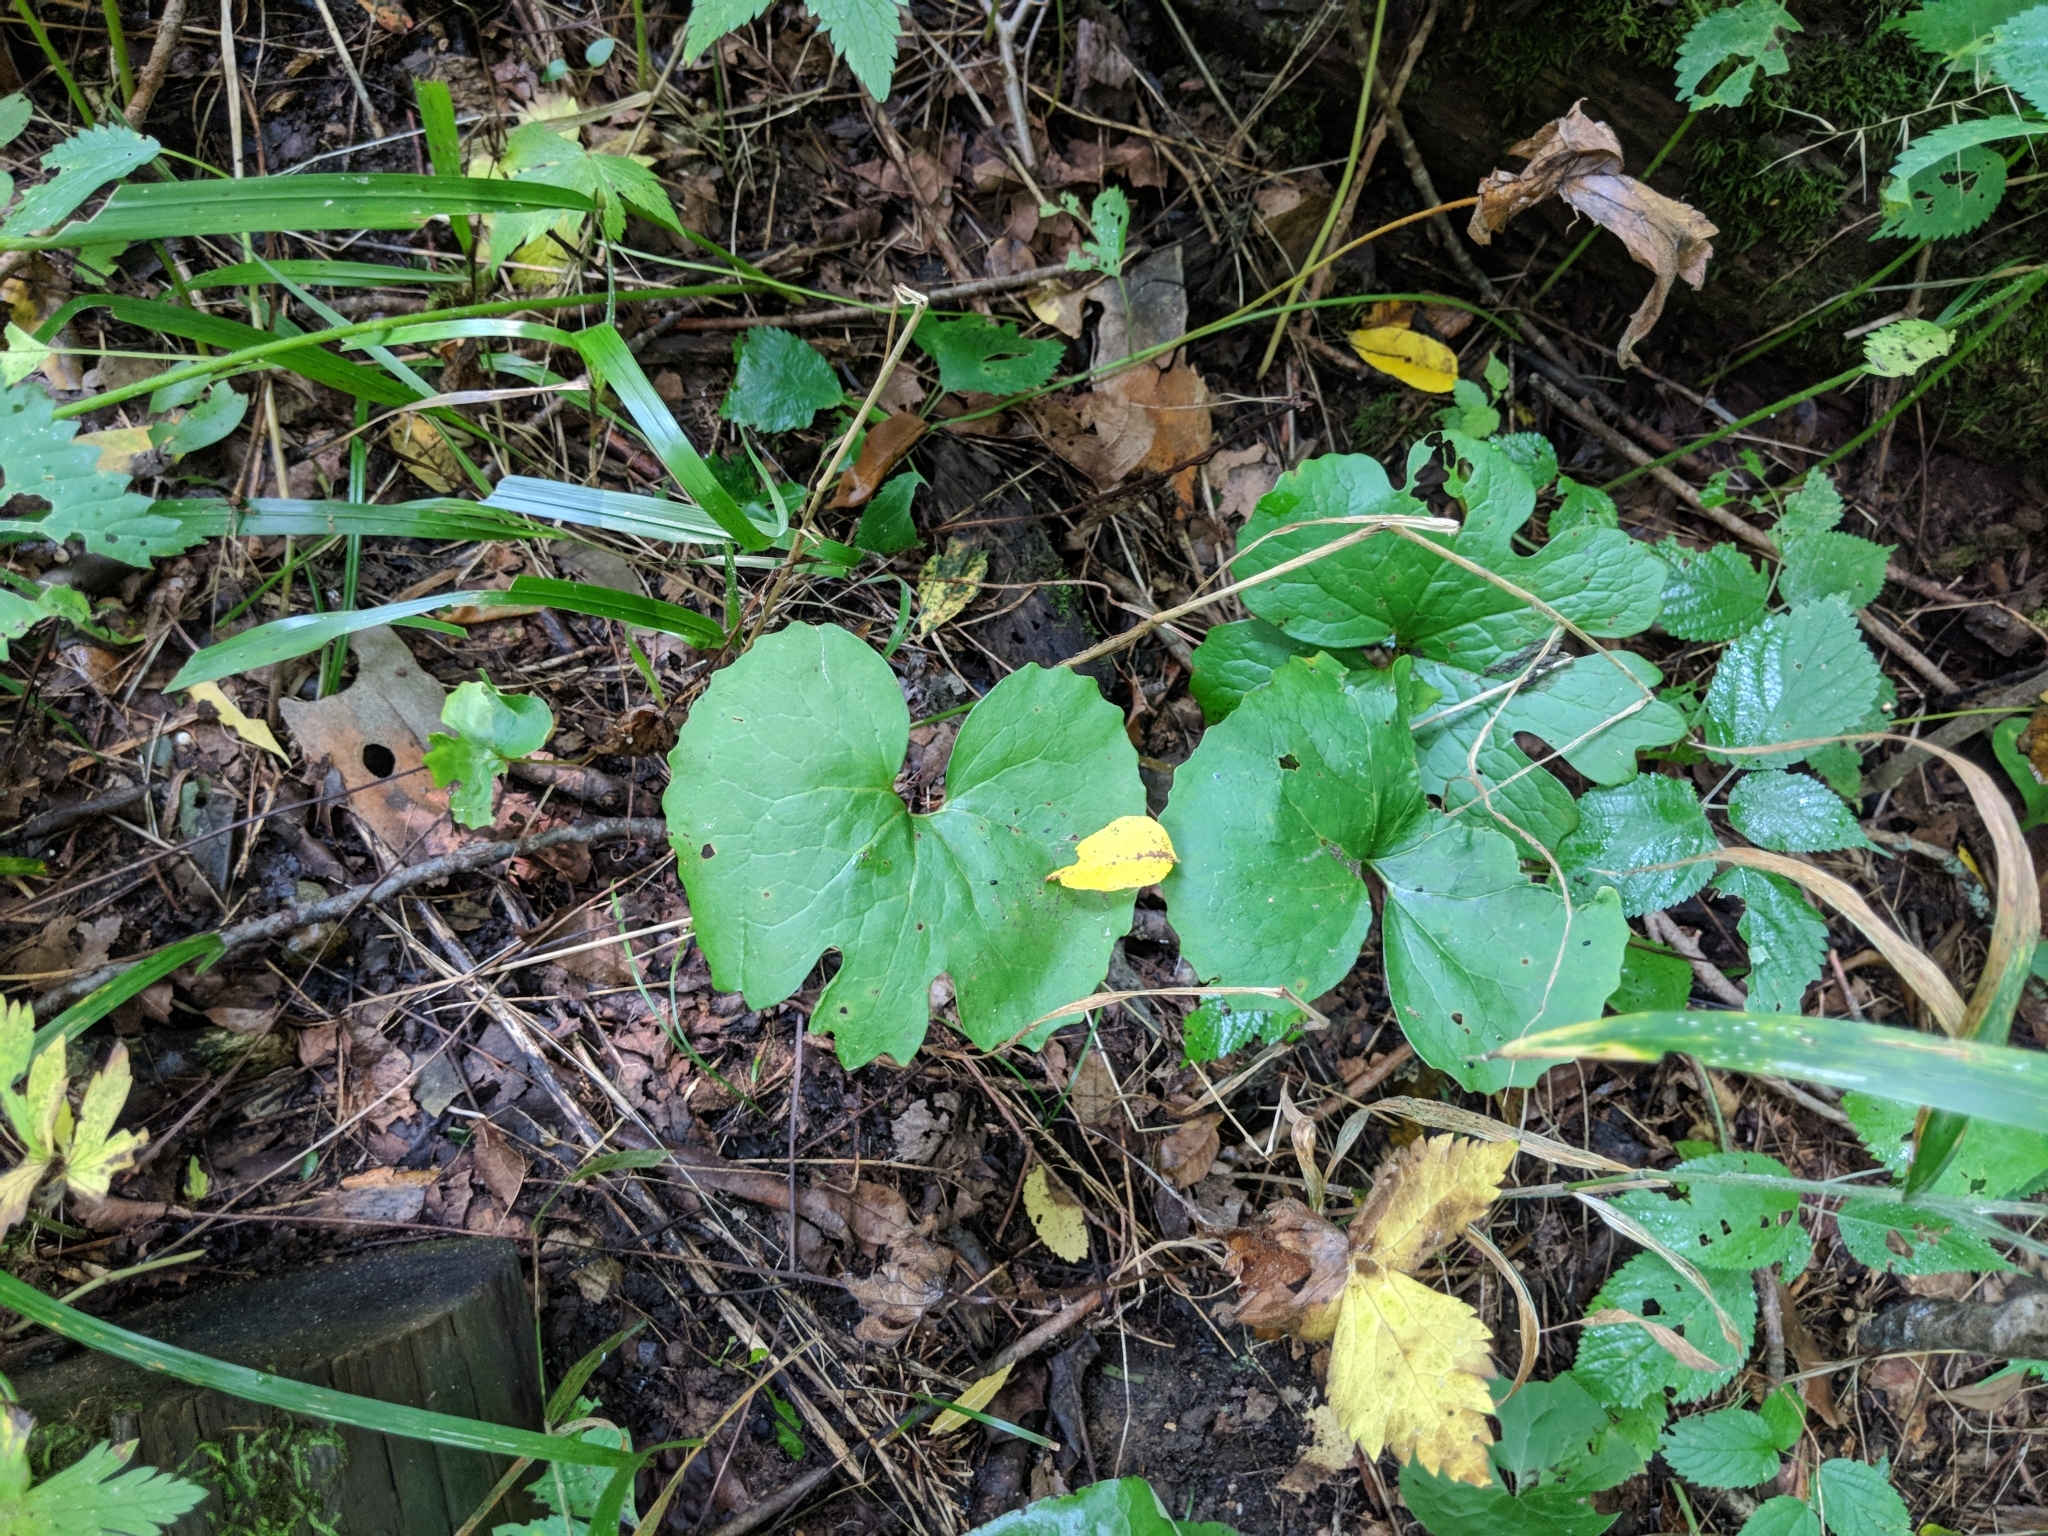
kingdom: Plantae
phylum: Tracheophyta
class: Magnoliopsida
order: Ranunculales
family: Papaveraceae
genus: Sanguinaria
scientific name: Sanguinaria canadensis
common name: Bloodroot
